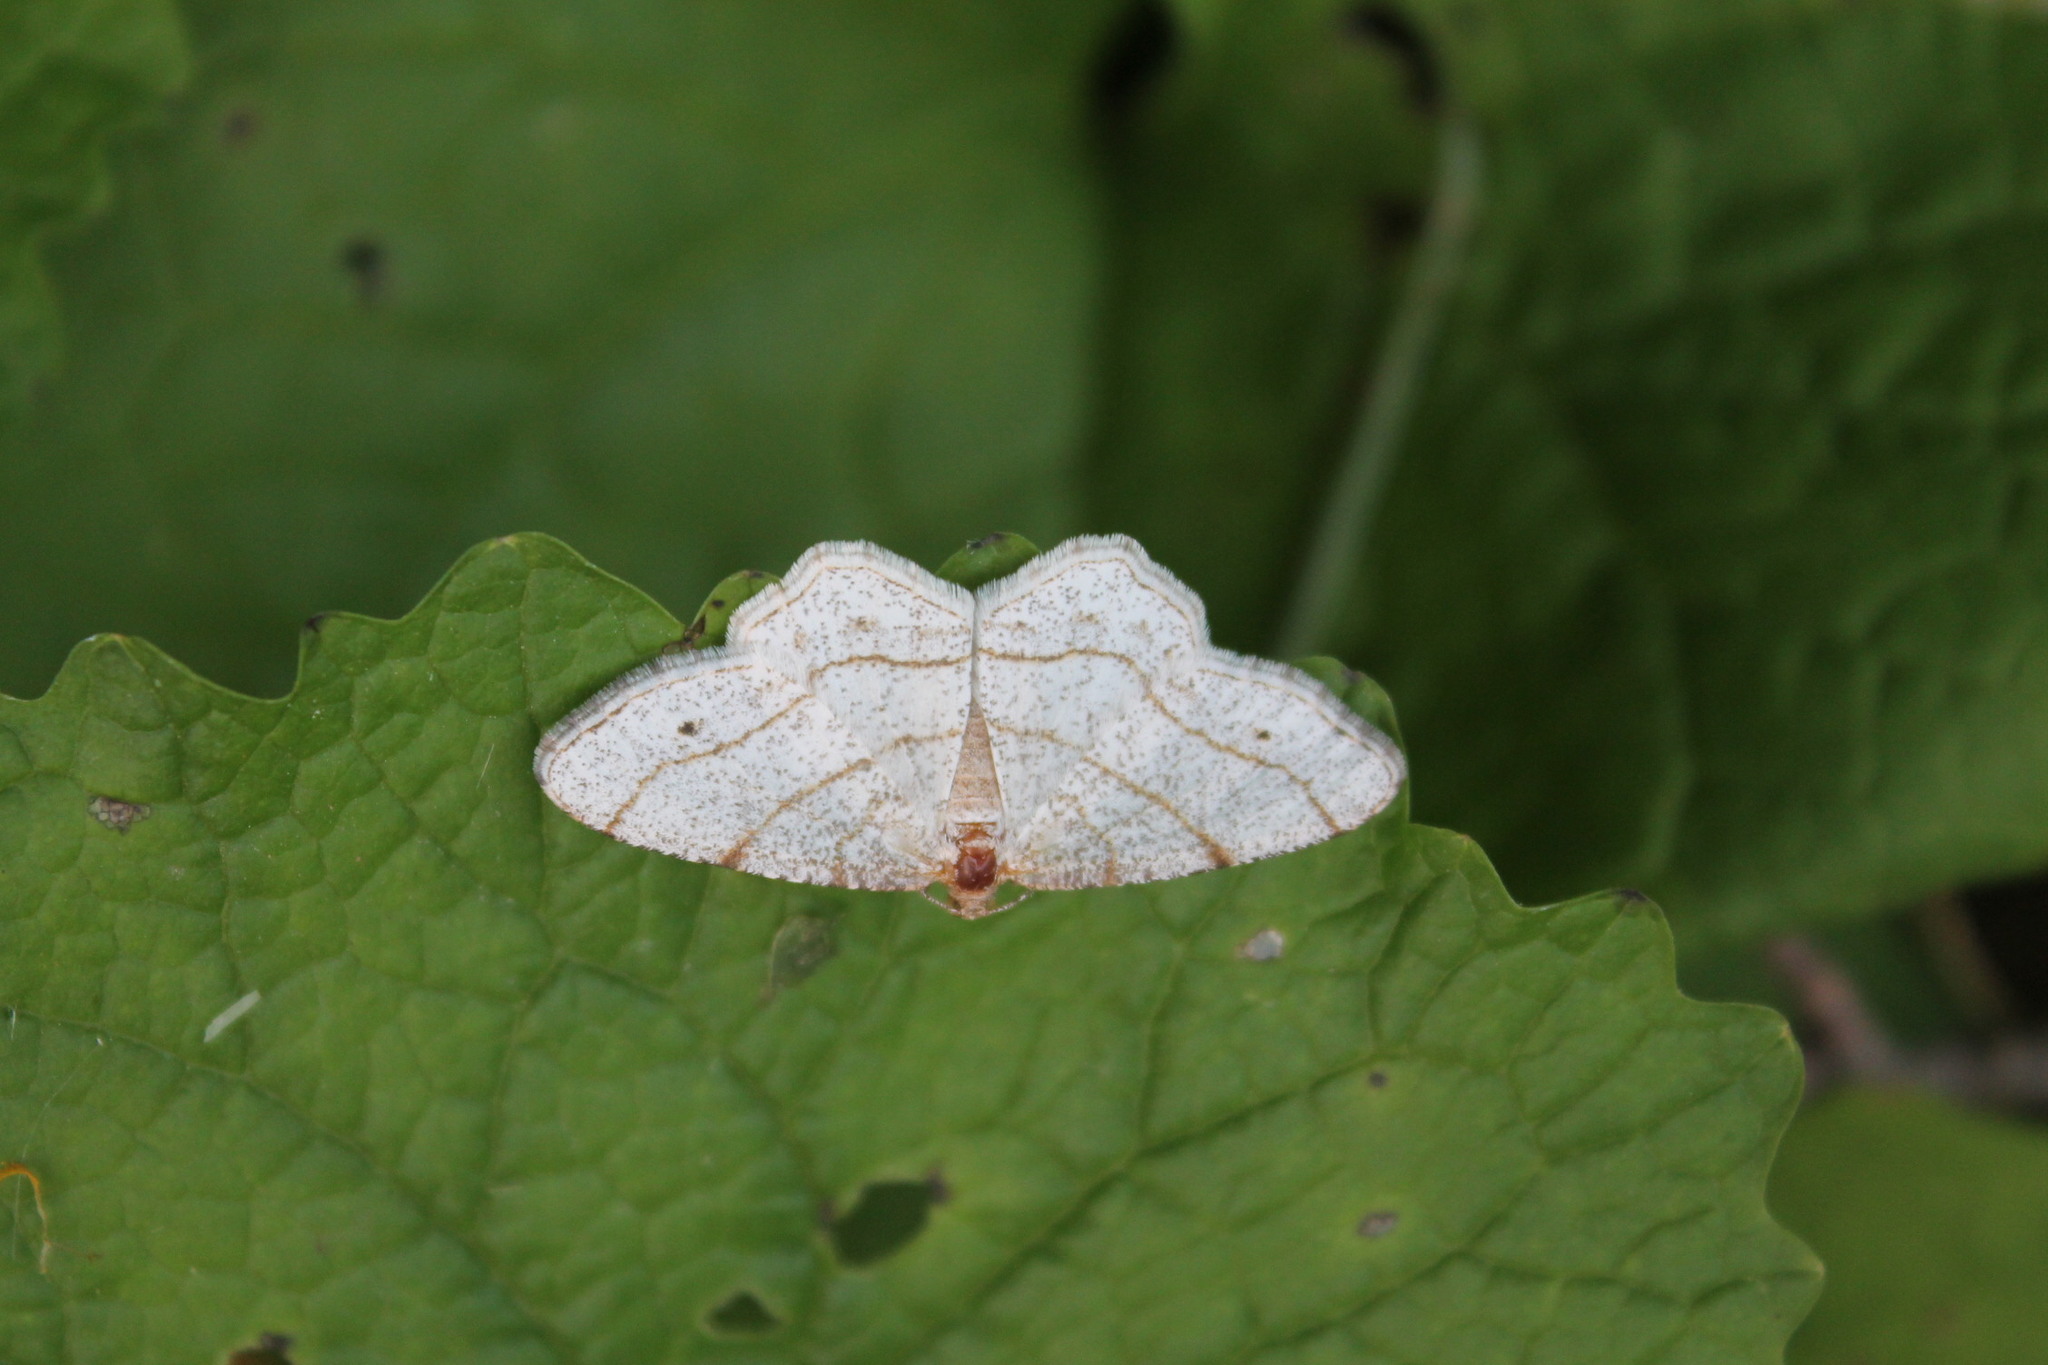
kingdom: Animalia
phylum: Arthropoda
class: Insecta
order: Lepidoptera
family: Geometridae
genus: Trigrammia
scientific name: Trigrammia quadrinotaria
